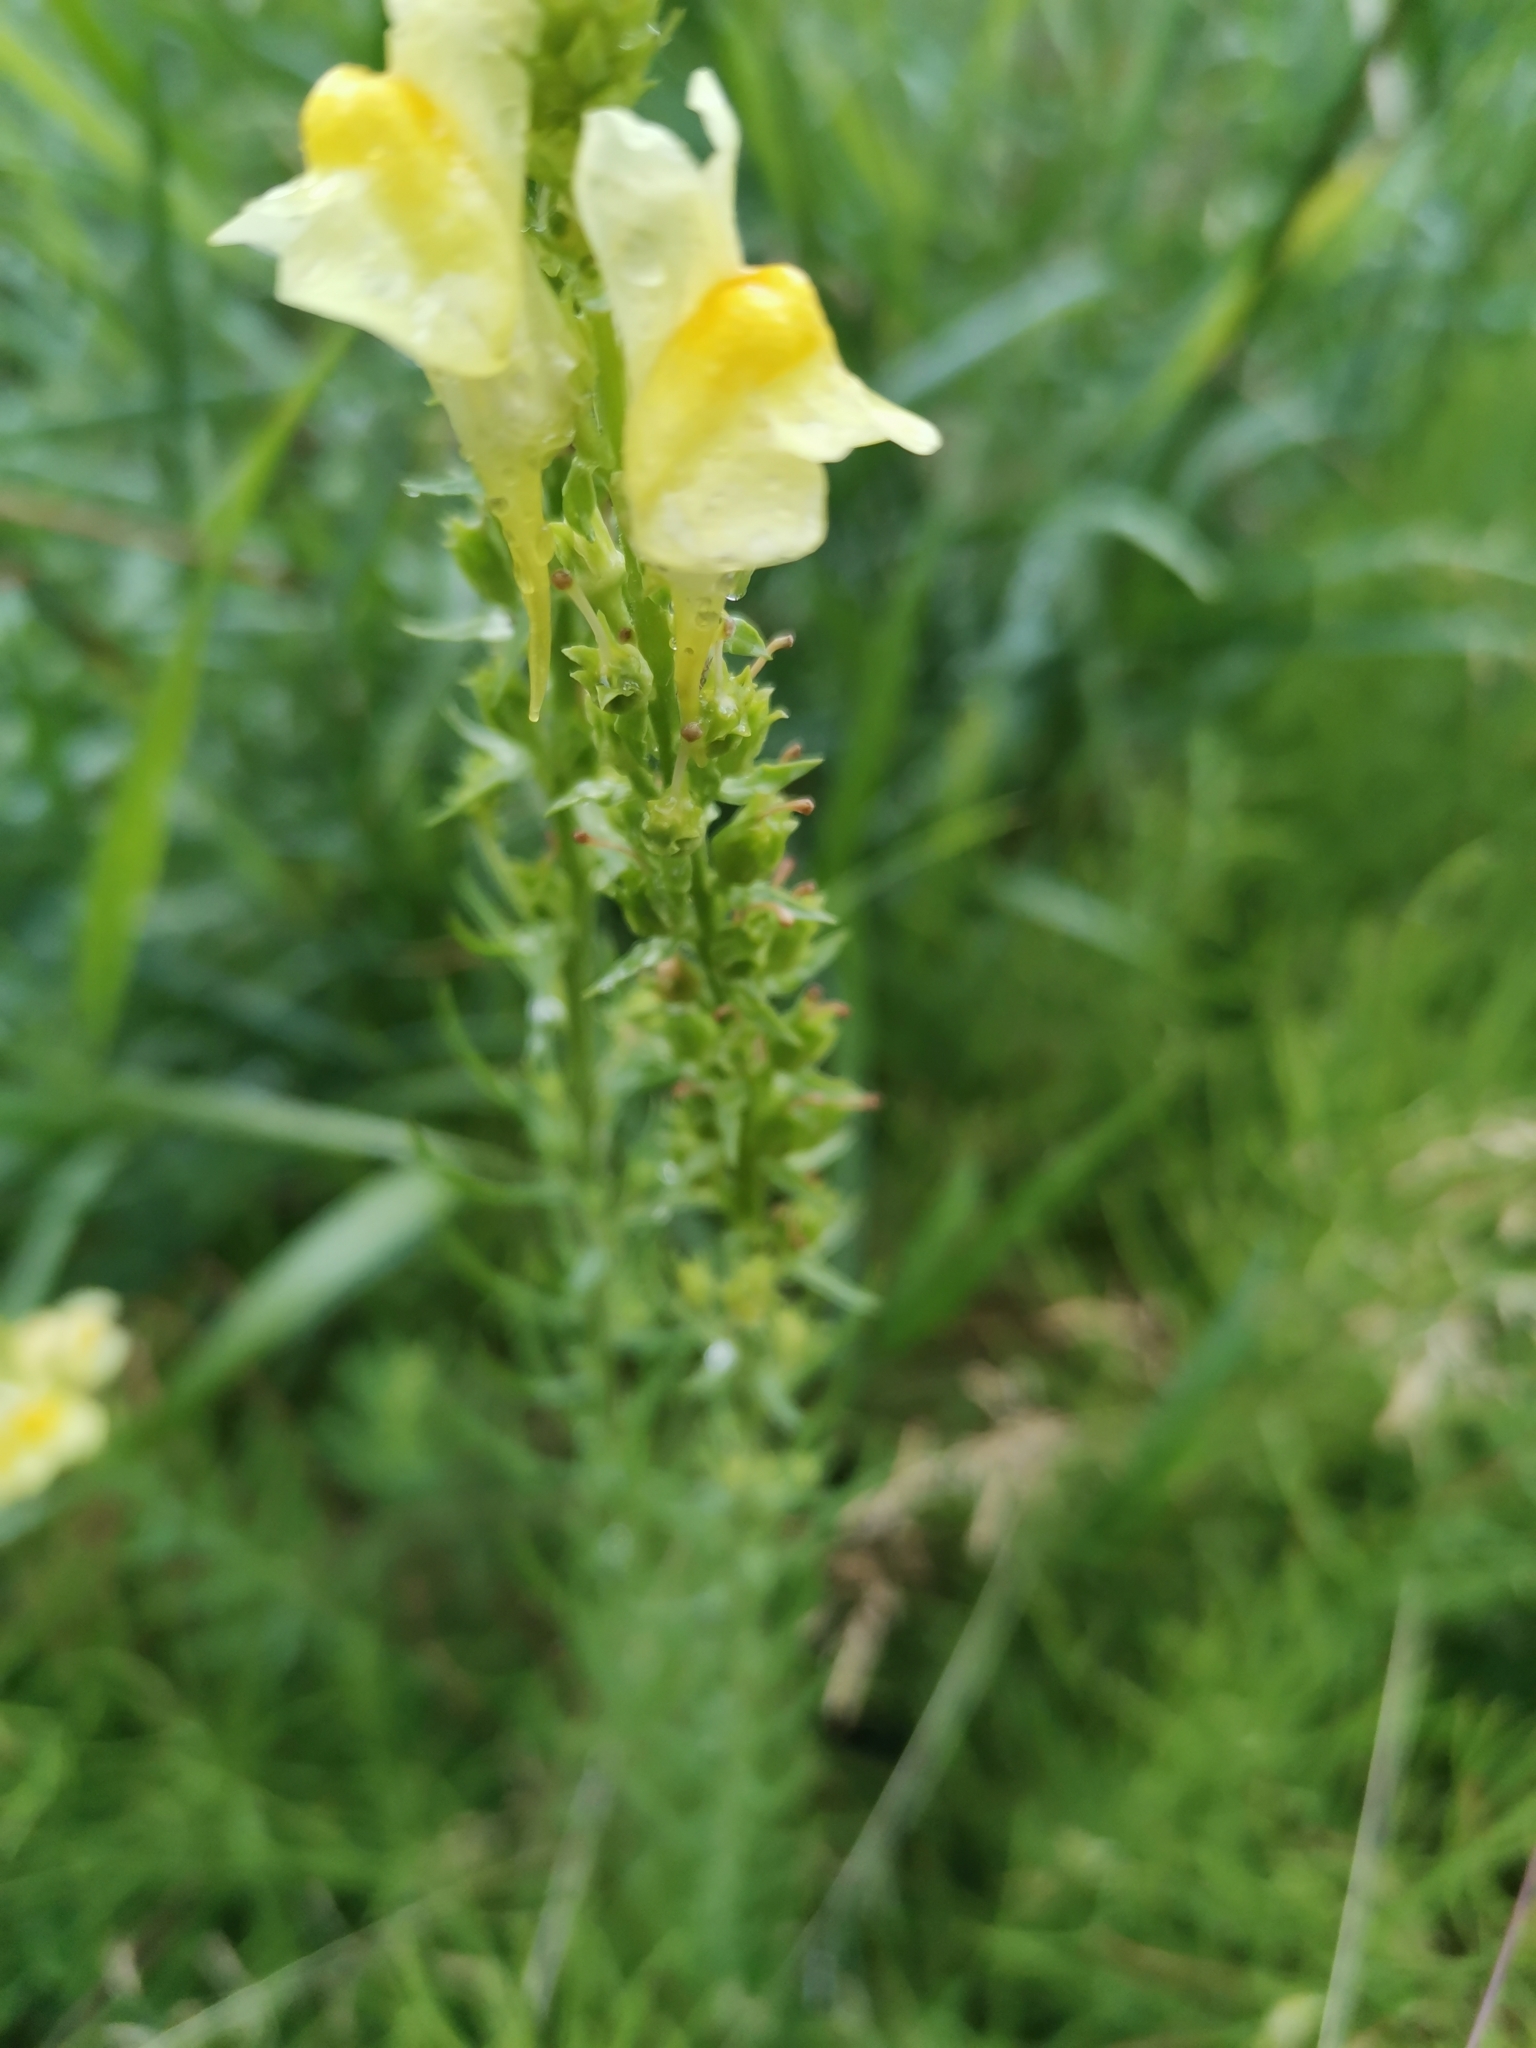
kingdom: Plantae
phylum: Tracheophyta
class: Magnoliopsida
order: Lamiales
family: Plantaginaceae
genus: Linaria
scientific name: Linaria vulgaris
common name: Butter and eggs
